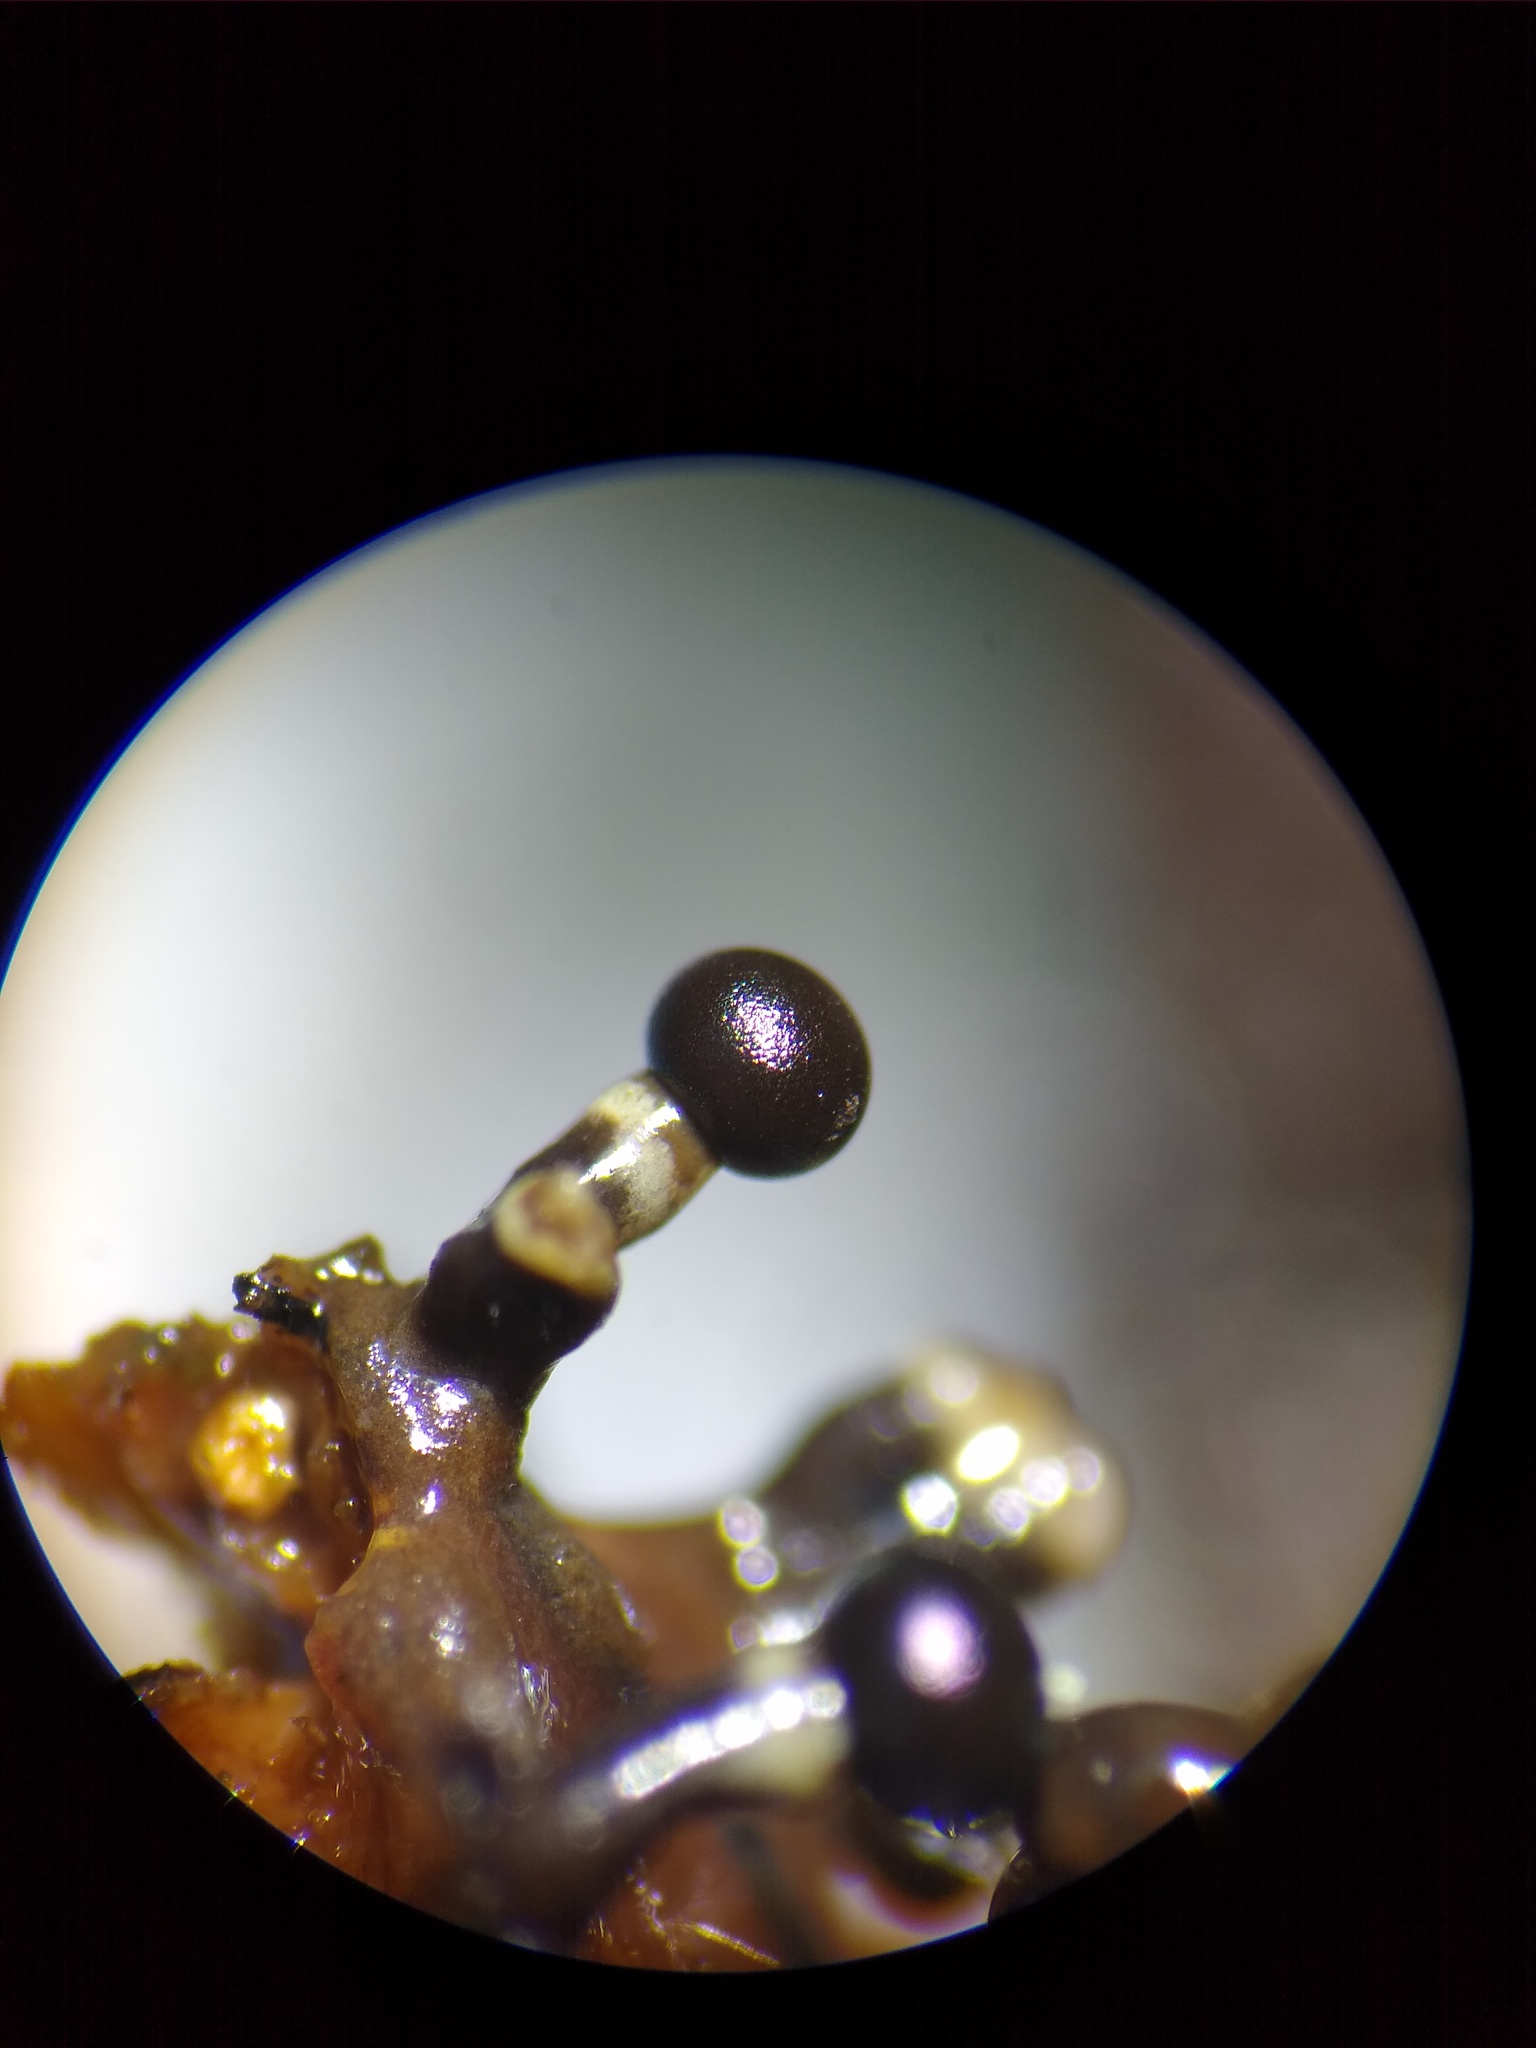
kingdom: Protozoa
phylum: Mycetozoa
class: Myxomycetes
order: Physarales
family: Elaeomyxaceae
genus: Elaeomyxa
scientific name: Elaeomyxa cerifera
